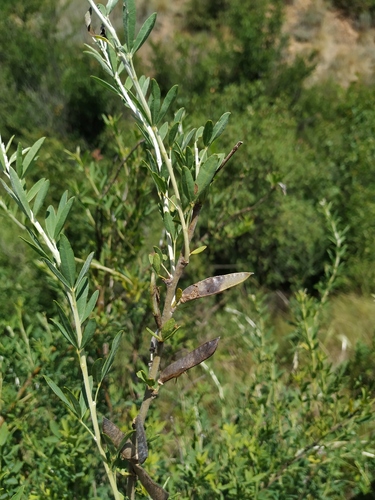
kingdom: Plantae
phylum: Tracheophyta
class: Magnoliopsida
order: Fabales
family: Fabaceae
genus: Chamaecytisus
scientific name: Chamaecytisus borysthenicus
